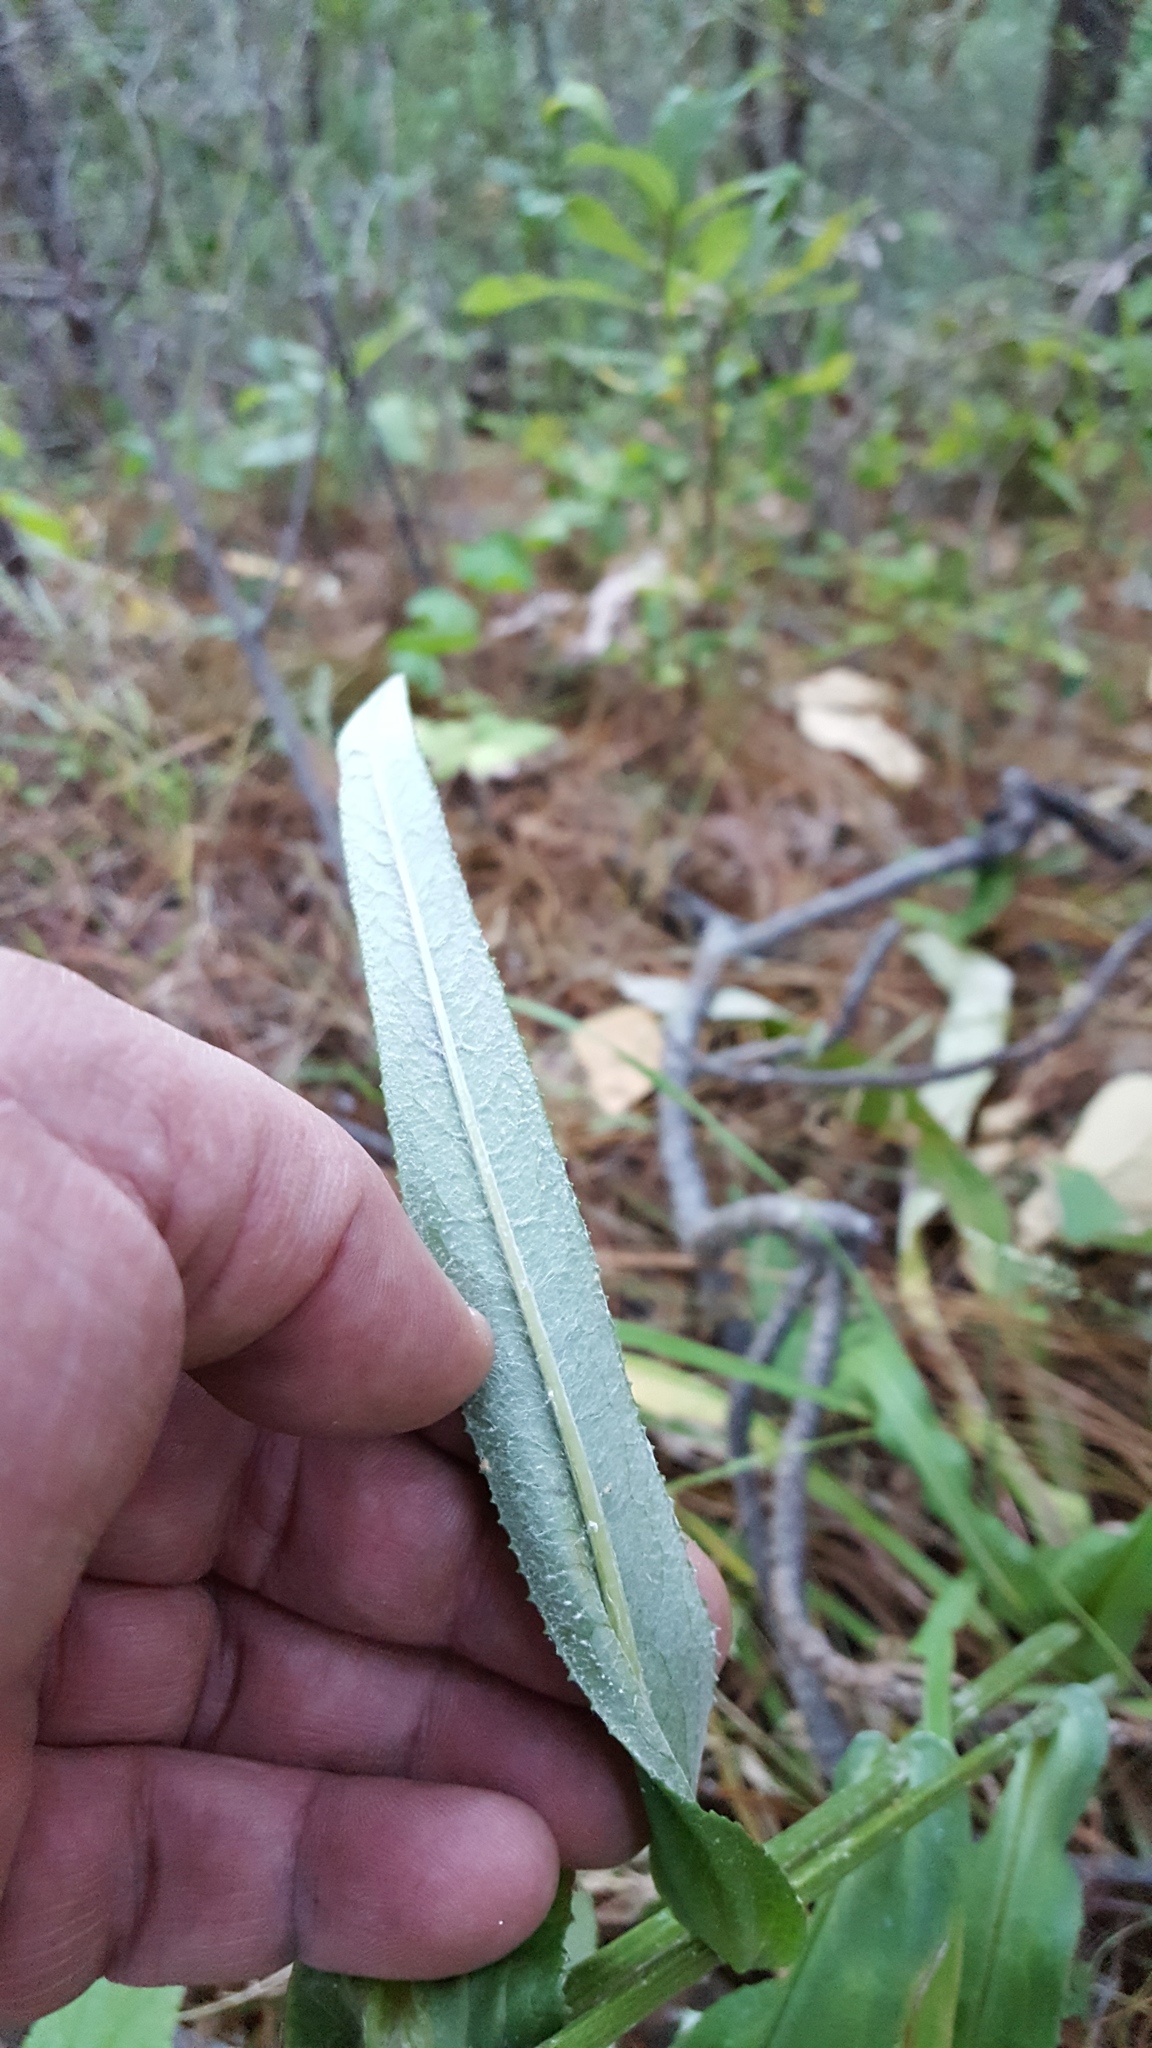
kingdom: Plantae
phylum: Tracheophyta
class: Magnoliopsida
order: Asterales
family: Asteraceae
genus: Senecio
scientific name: Senecio conzattii
